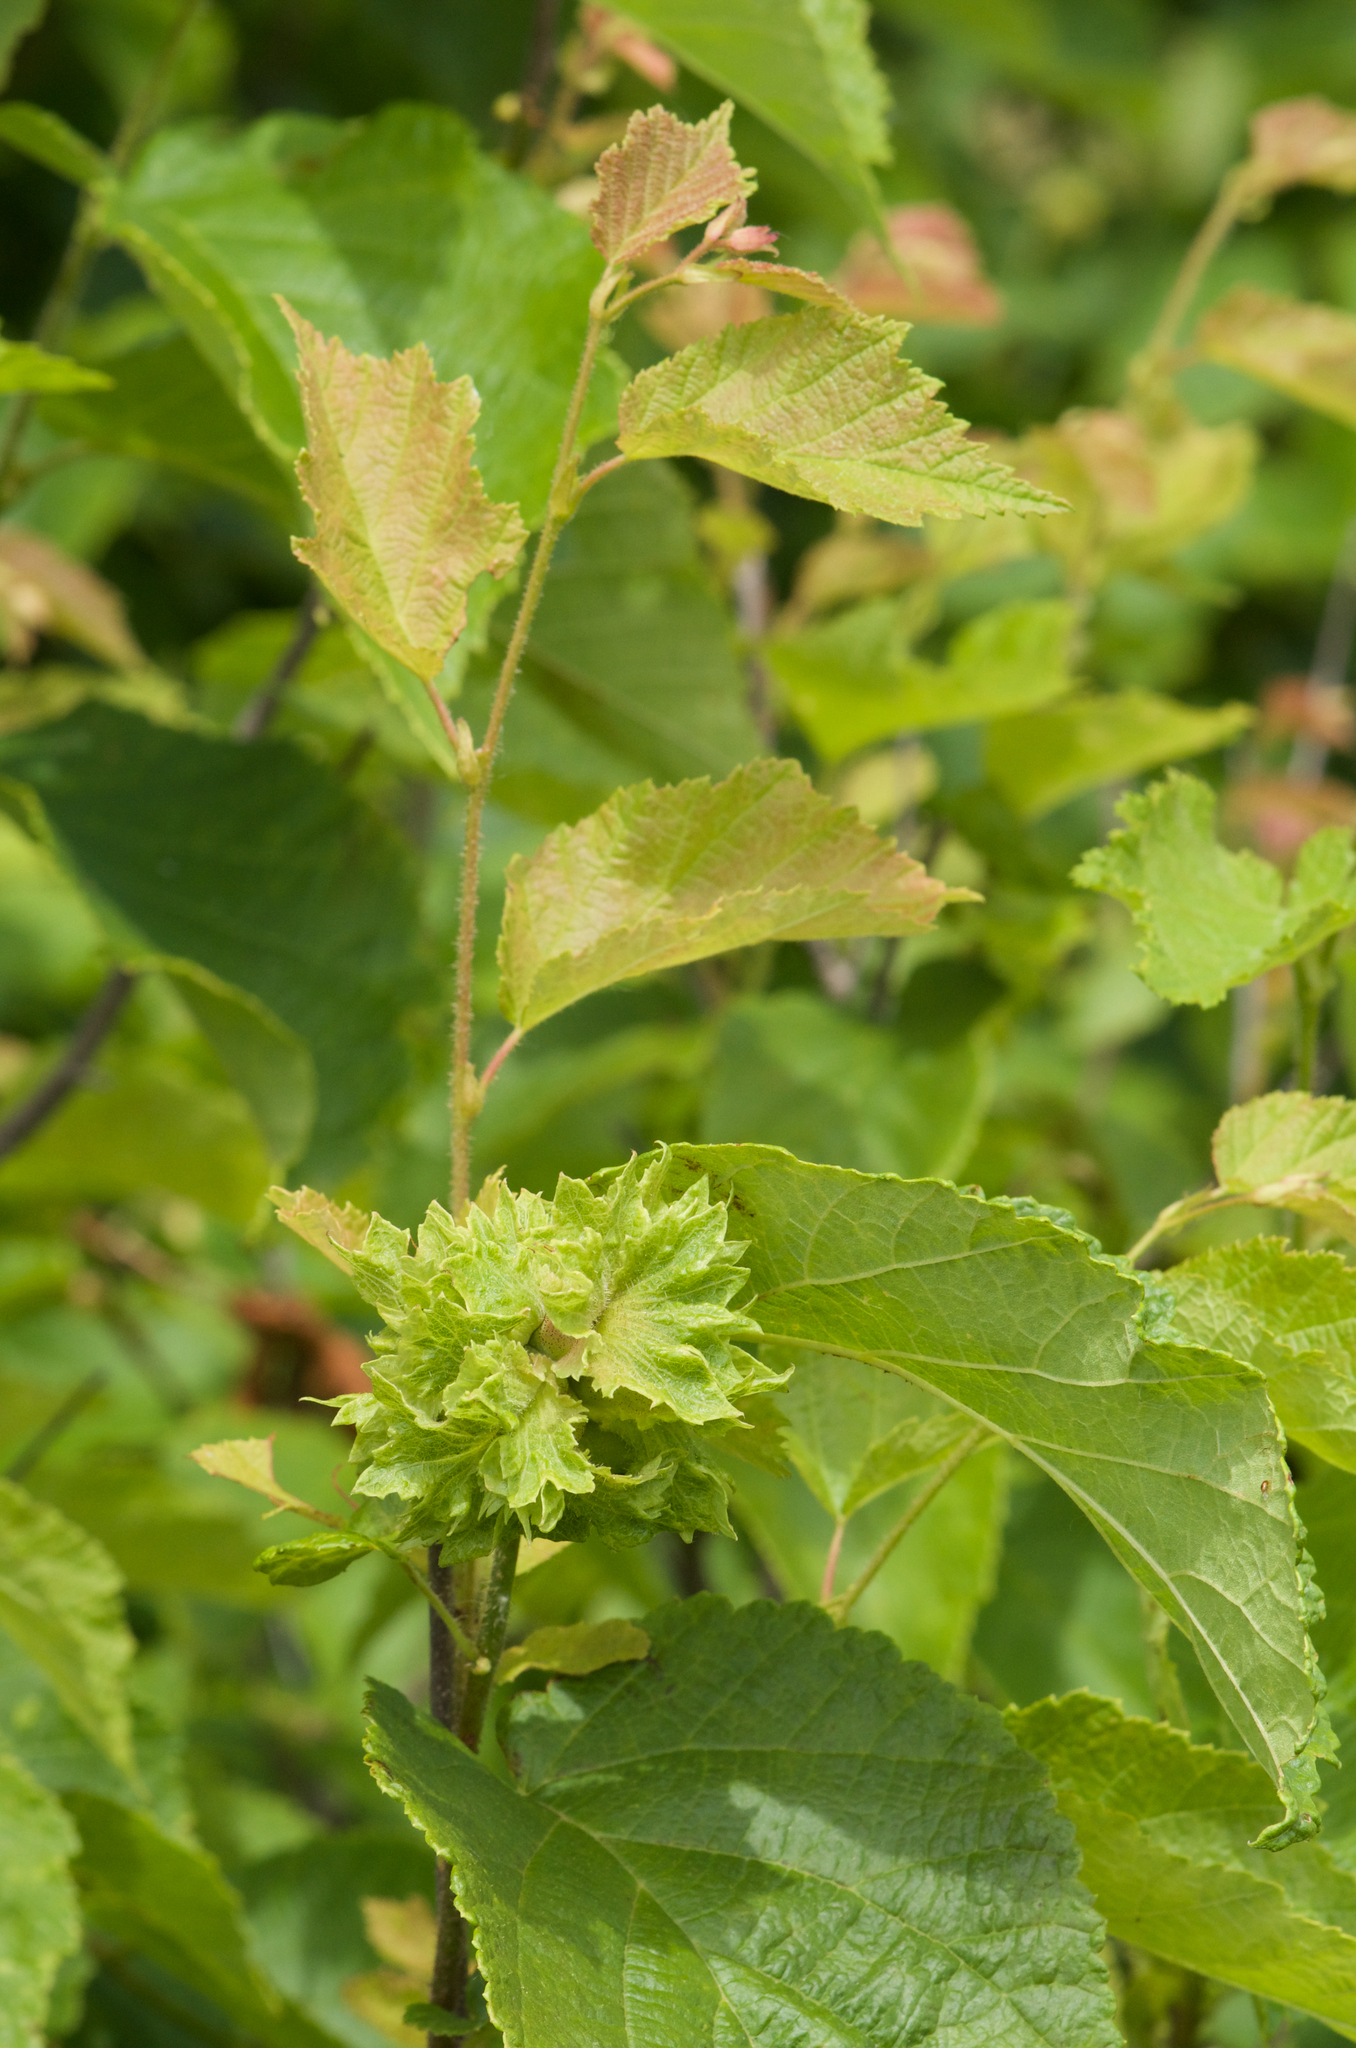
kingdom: Plantae
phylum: Tracheophyta
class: Magnoliopsida
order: Fagales
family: Betulaceae
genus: Corylus
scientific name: Corylus americana
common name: American hazel
